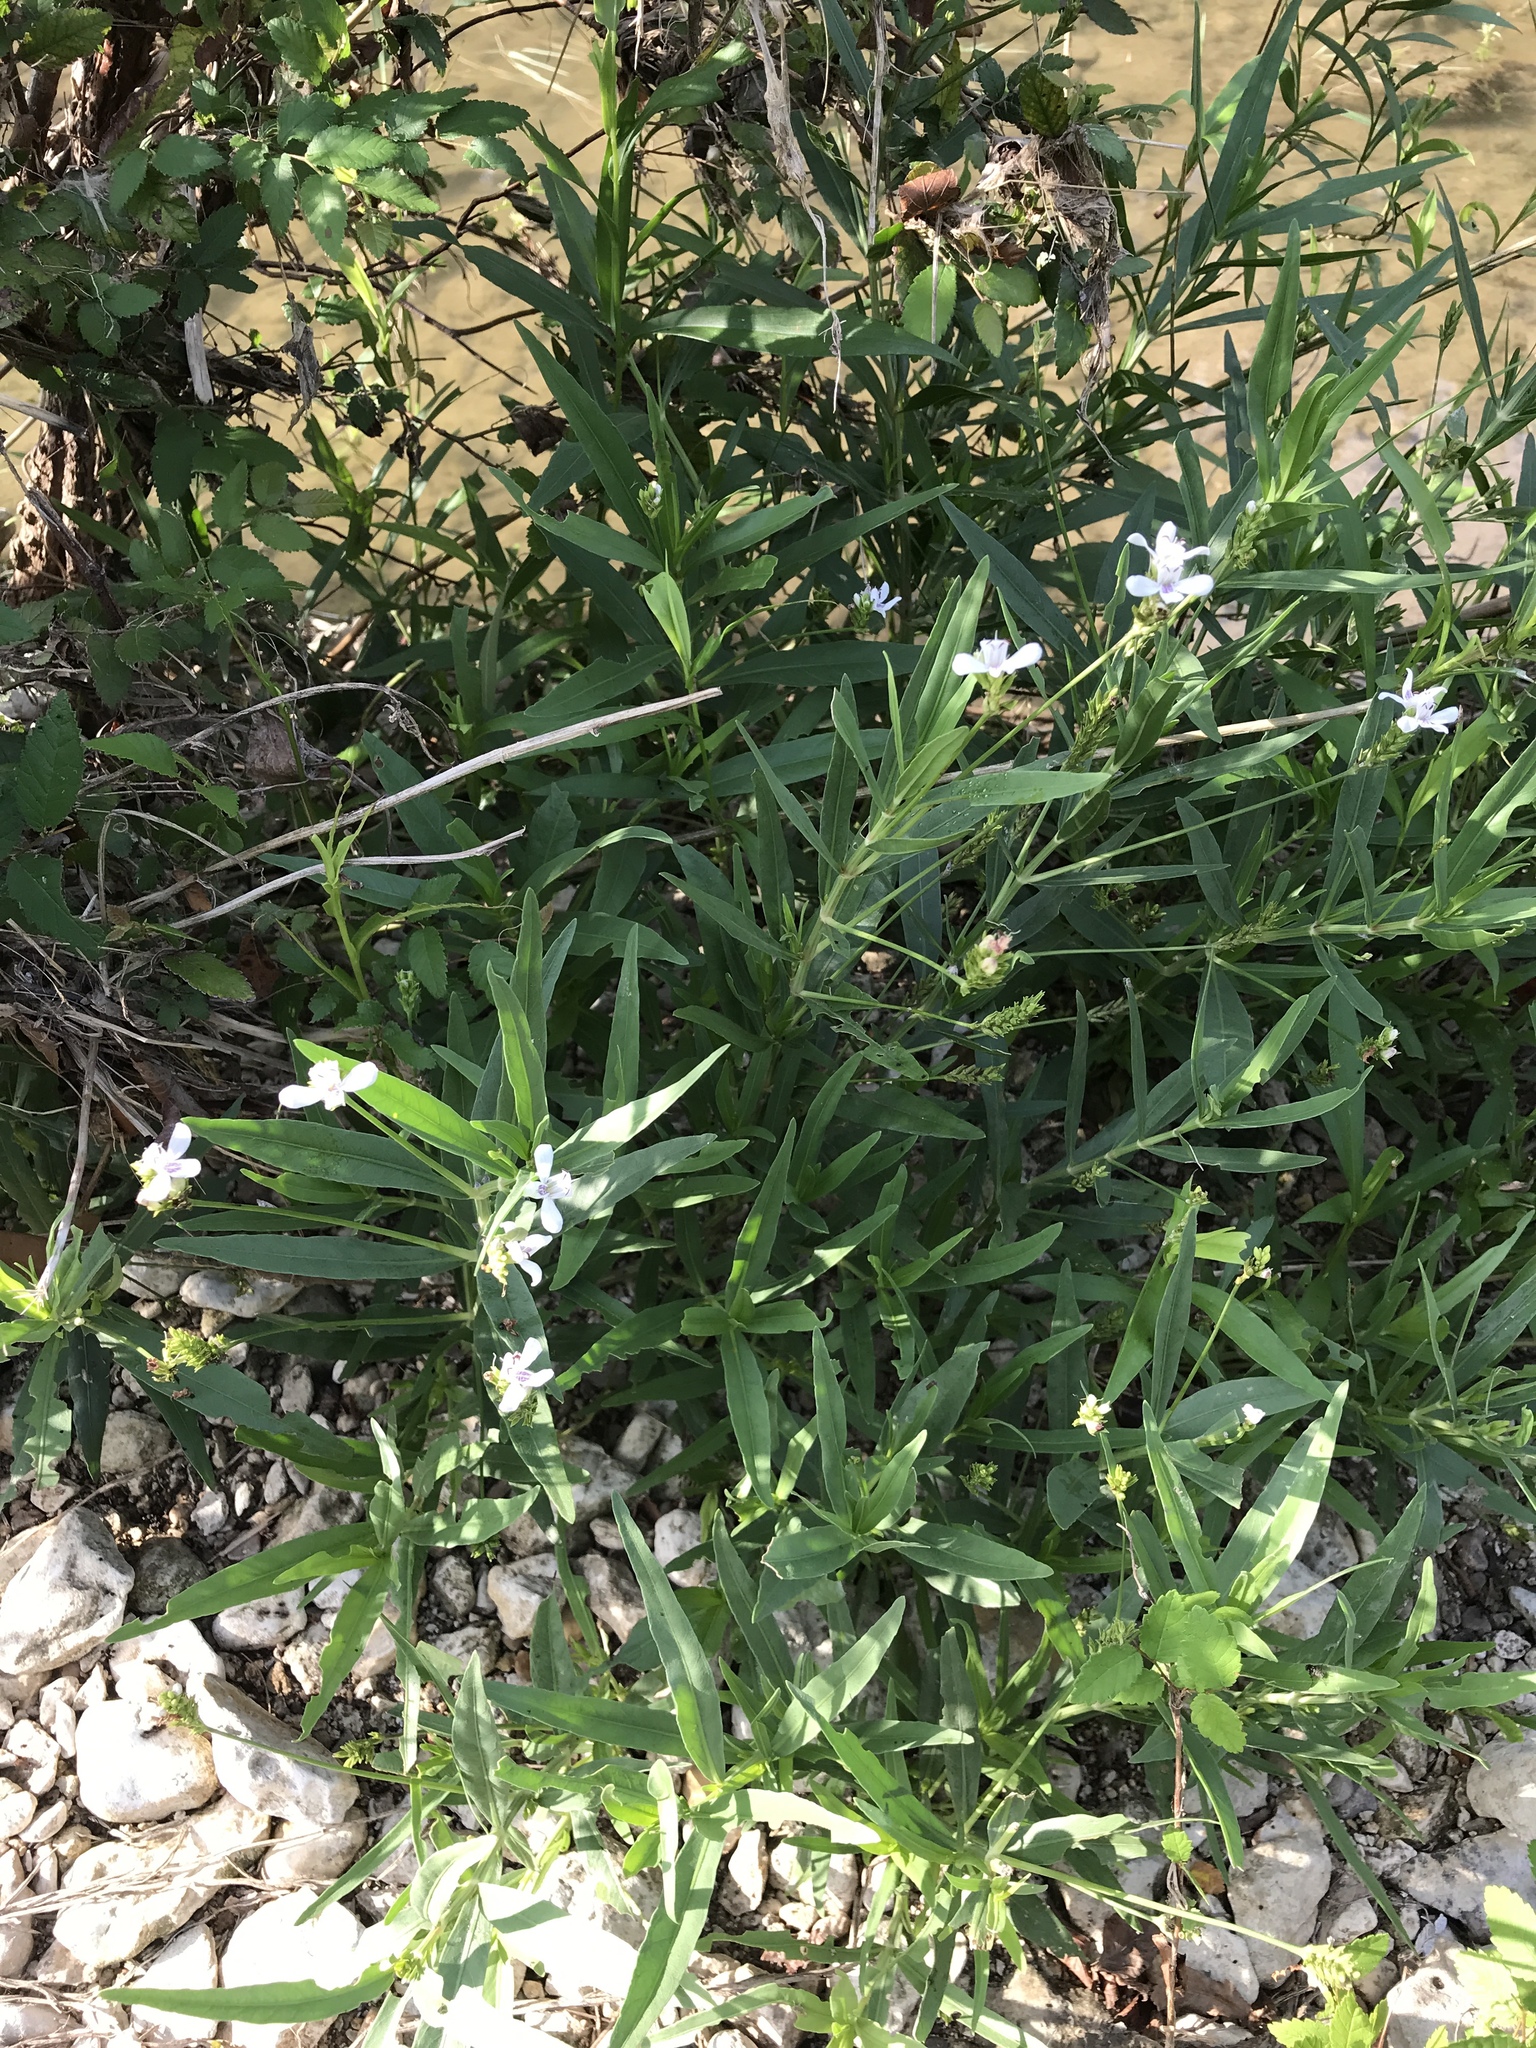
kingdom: Plantae
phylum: Tracheophyta
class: Magnoliopsida
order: Lamiales
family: Acanthaceae
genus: Dianthera
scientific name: Dianthera americana
